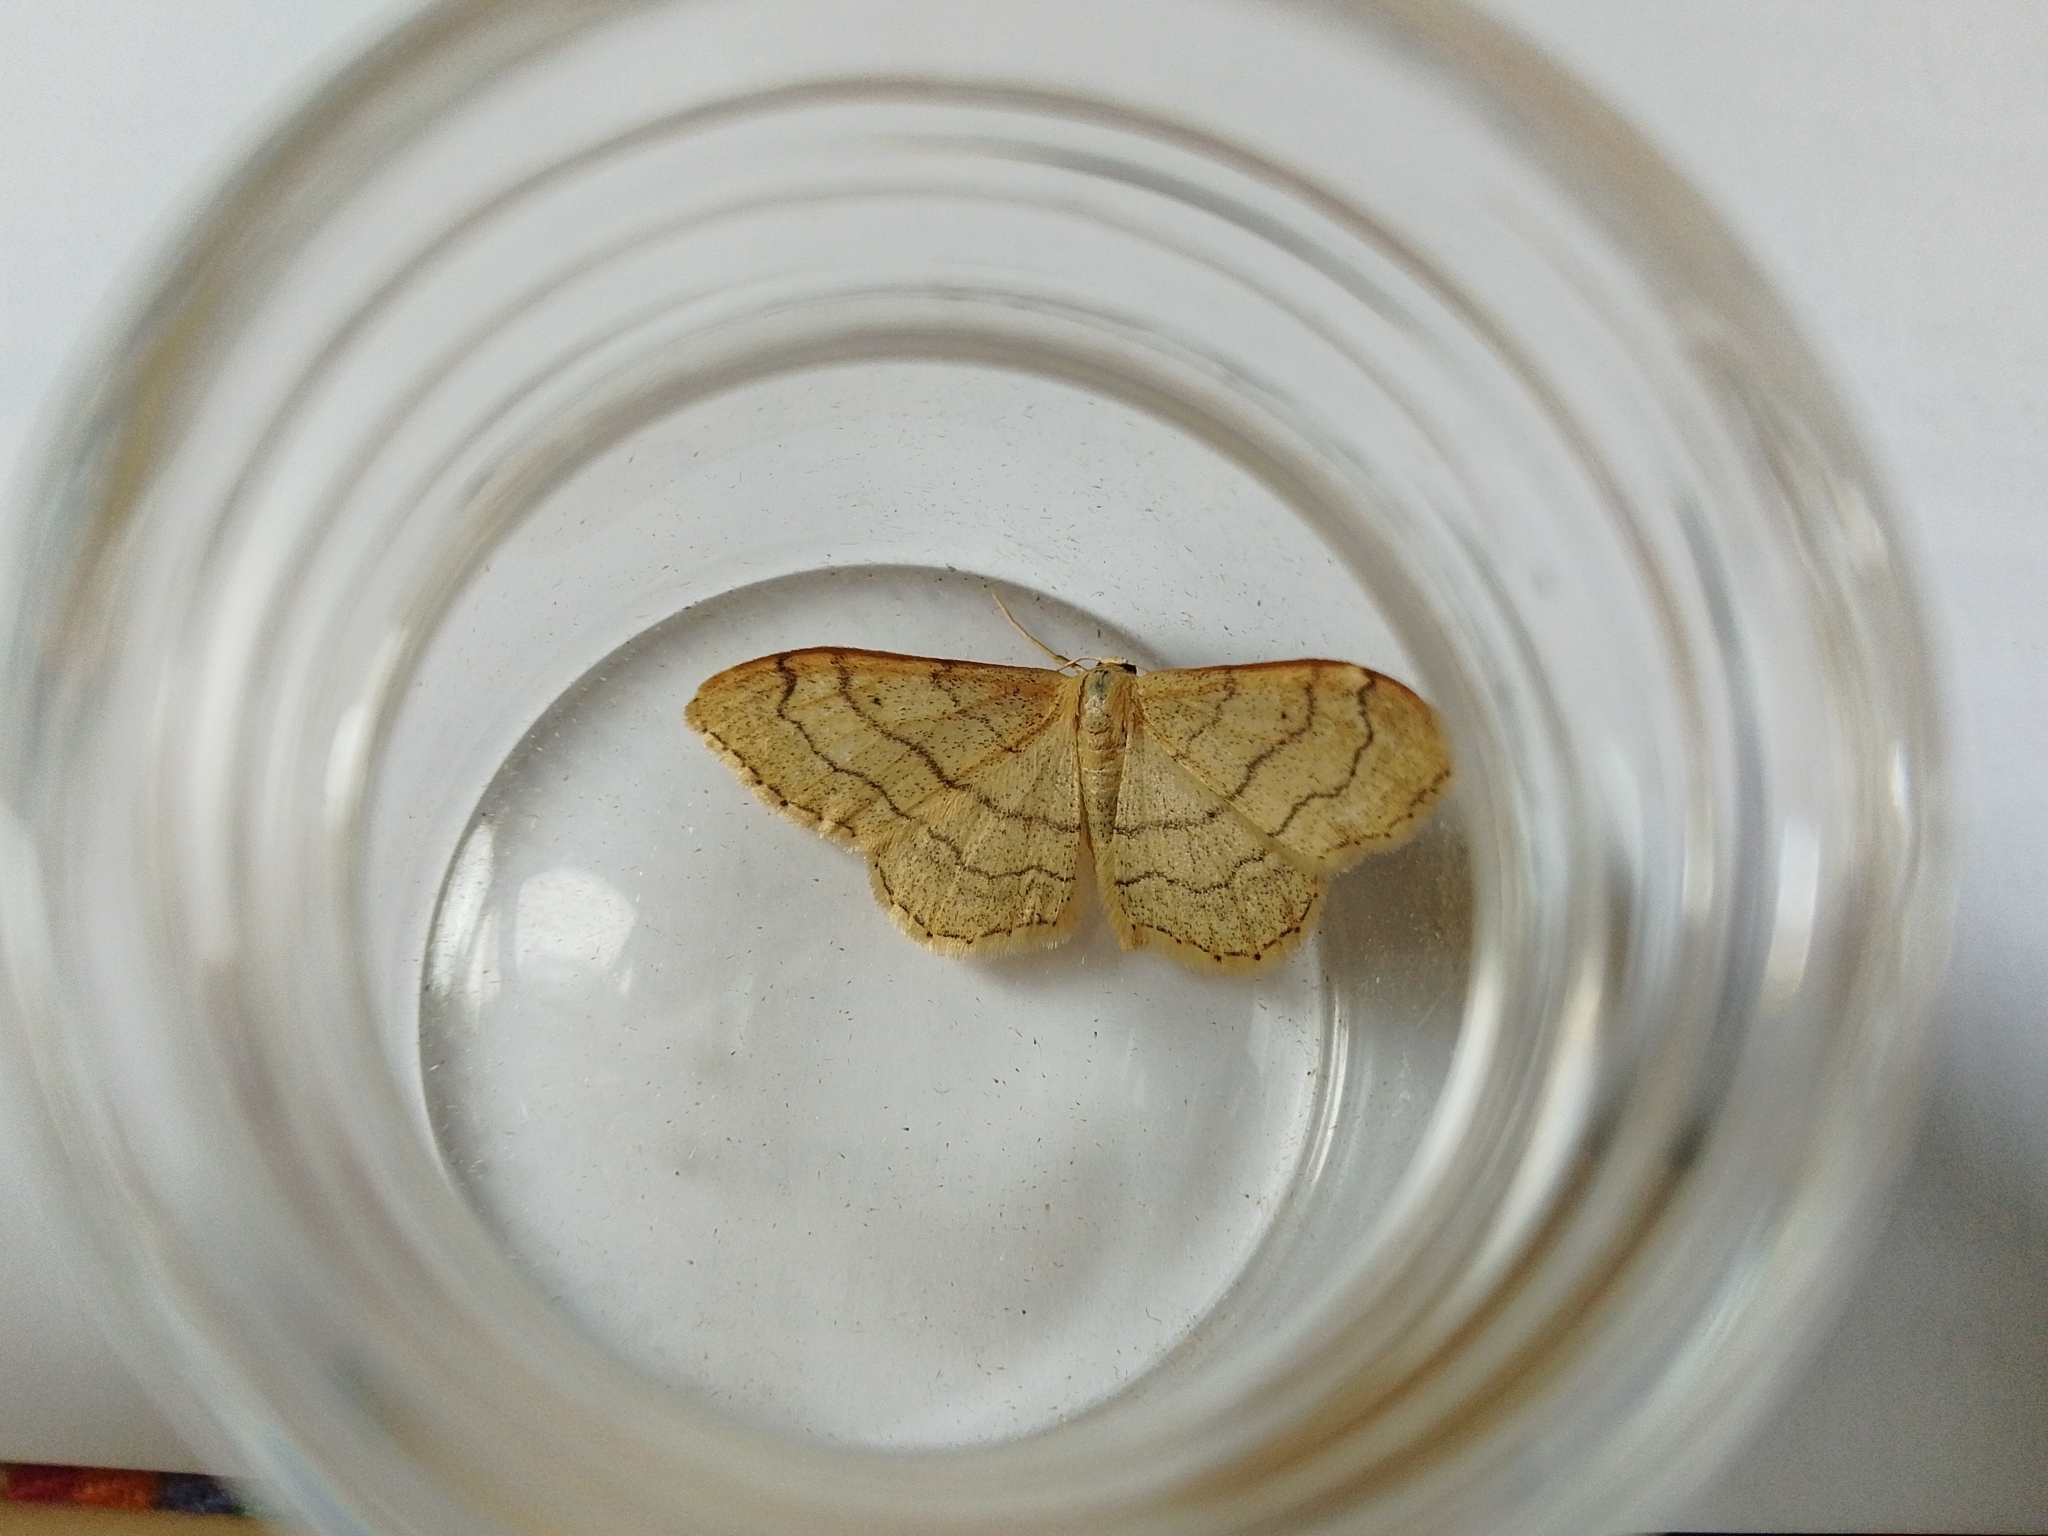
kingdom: Animalia
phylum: Arthropoda
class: Insecta
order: Lepidoptera
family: Geometridae
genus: Idaea
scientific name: Idaea aversata
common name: Riband wave
